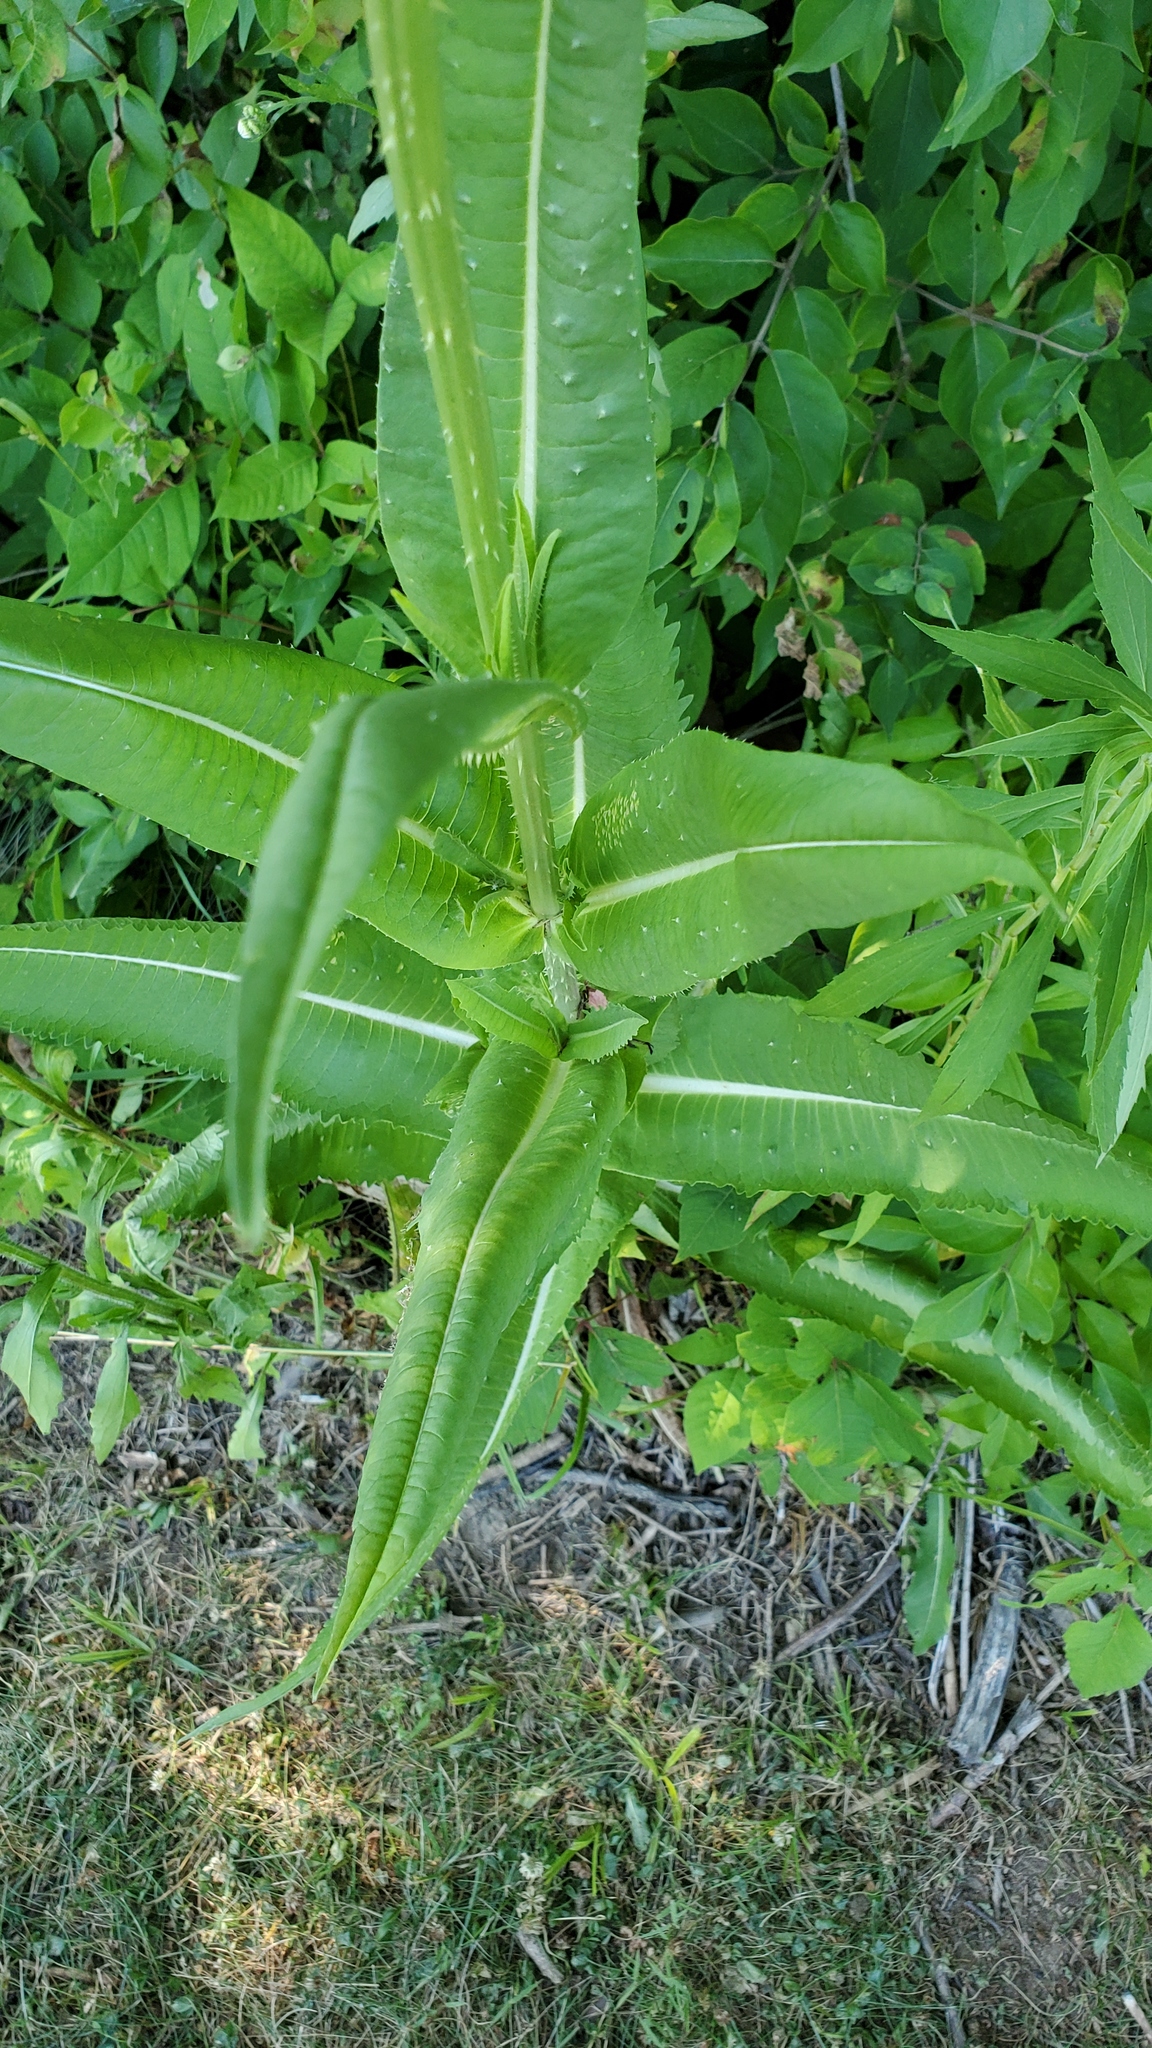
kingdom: Plantae
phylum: Tracheophyta
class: Magnoliopsida
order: Dipsacales
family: Caprifoliaceae
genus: Dipsacus
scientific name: Dipsacus fullonum
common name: Teasel
